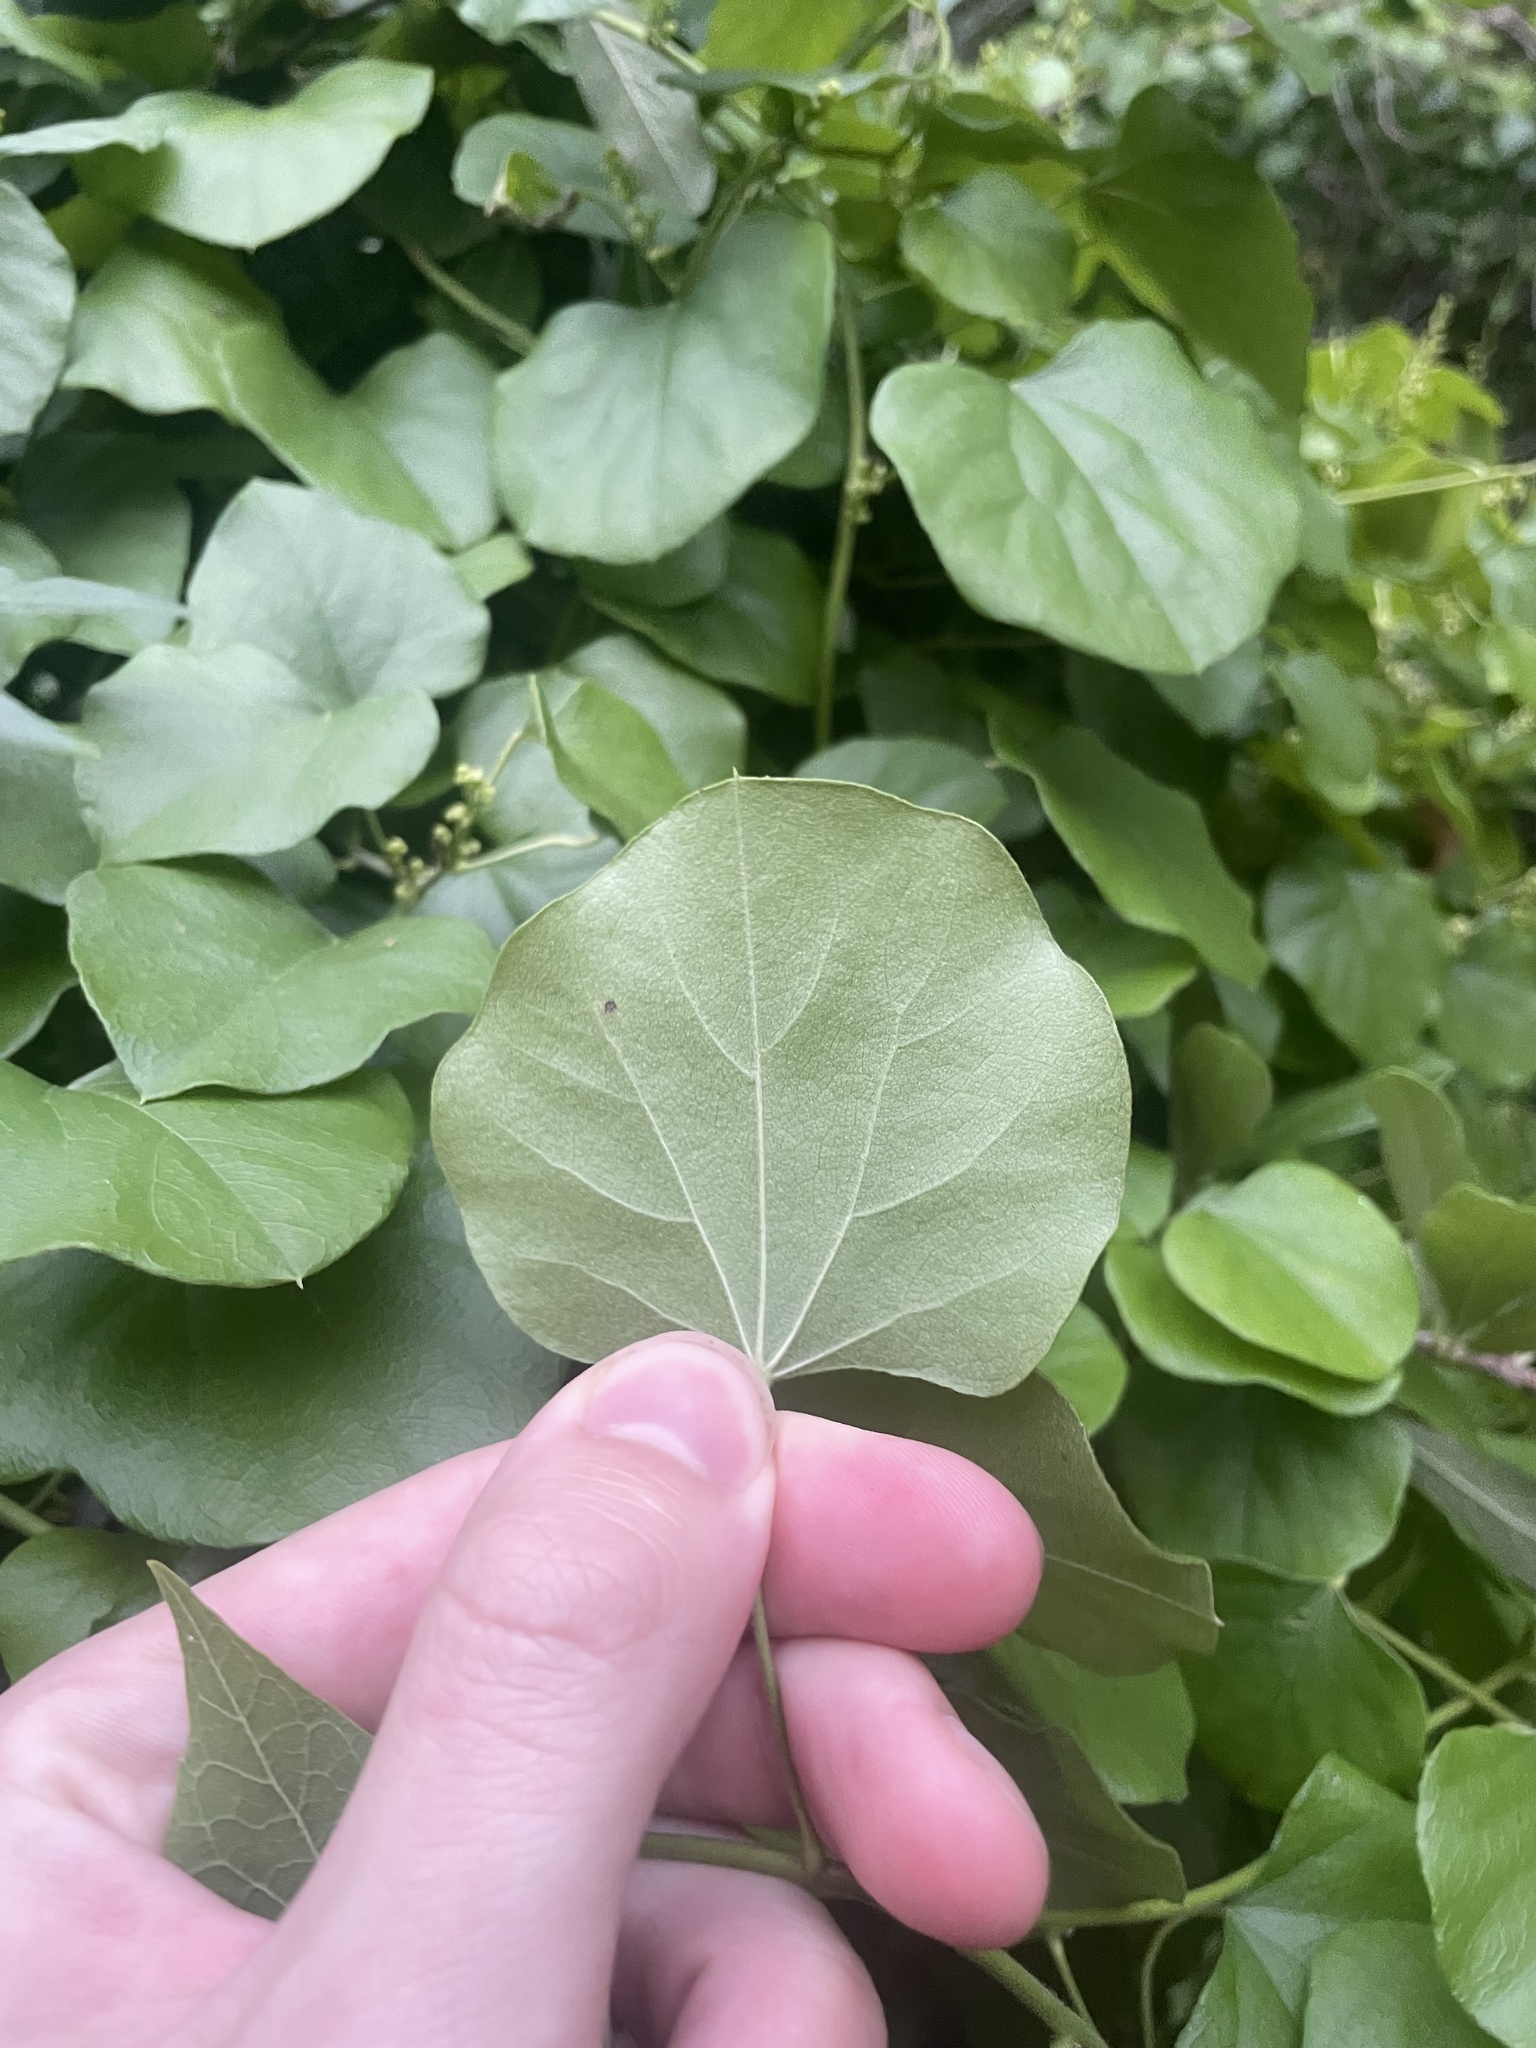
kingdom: Plantae
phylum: Tracheophyta
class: Magnoliopsida
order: Ranunculales
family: Menispermaceae
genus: Cocculus
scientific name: Cocculus carolinus
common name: Carolina moonseed
